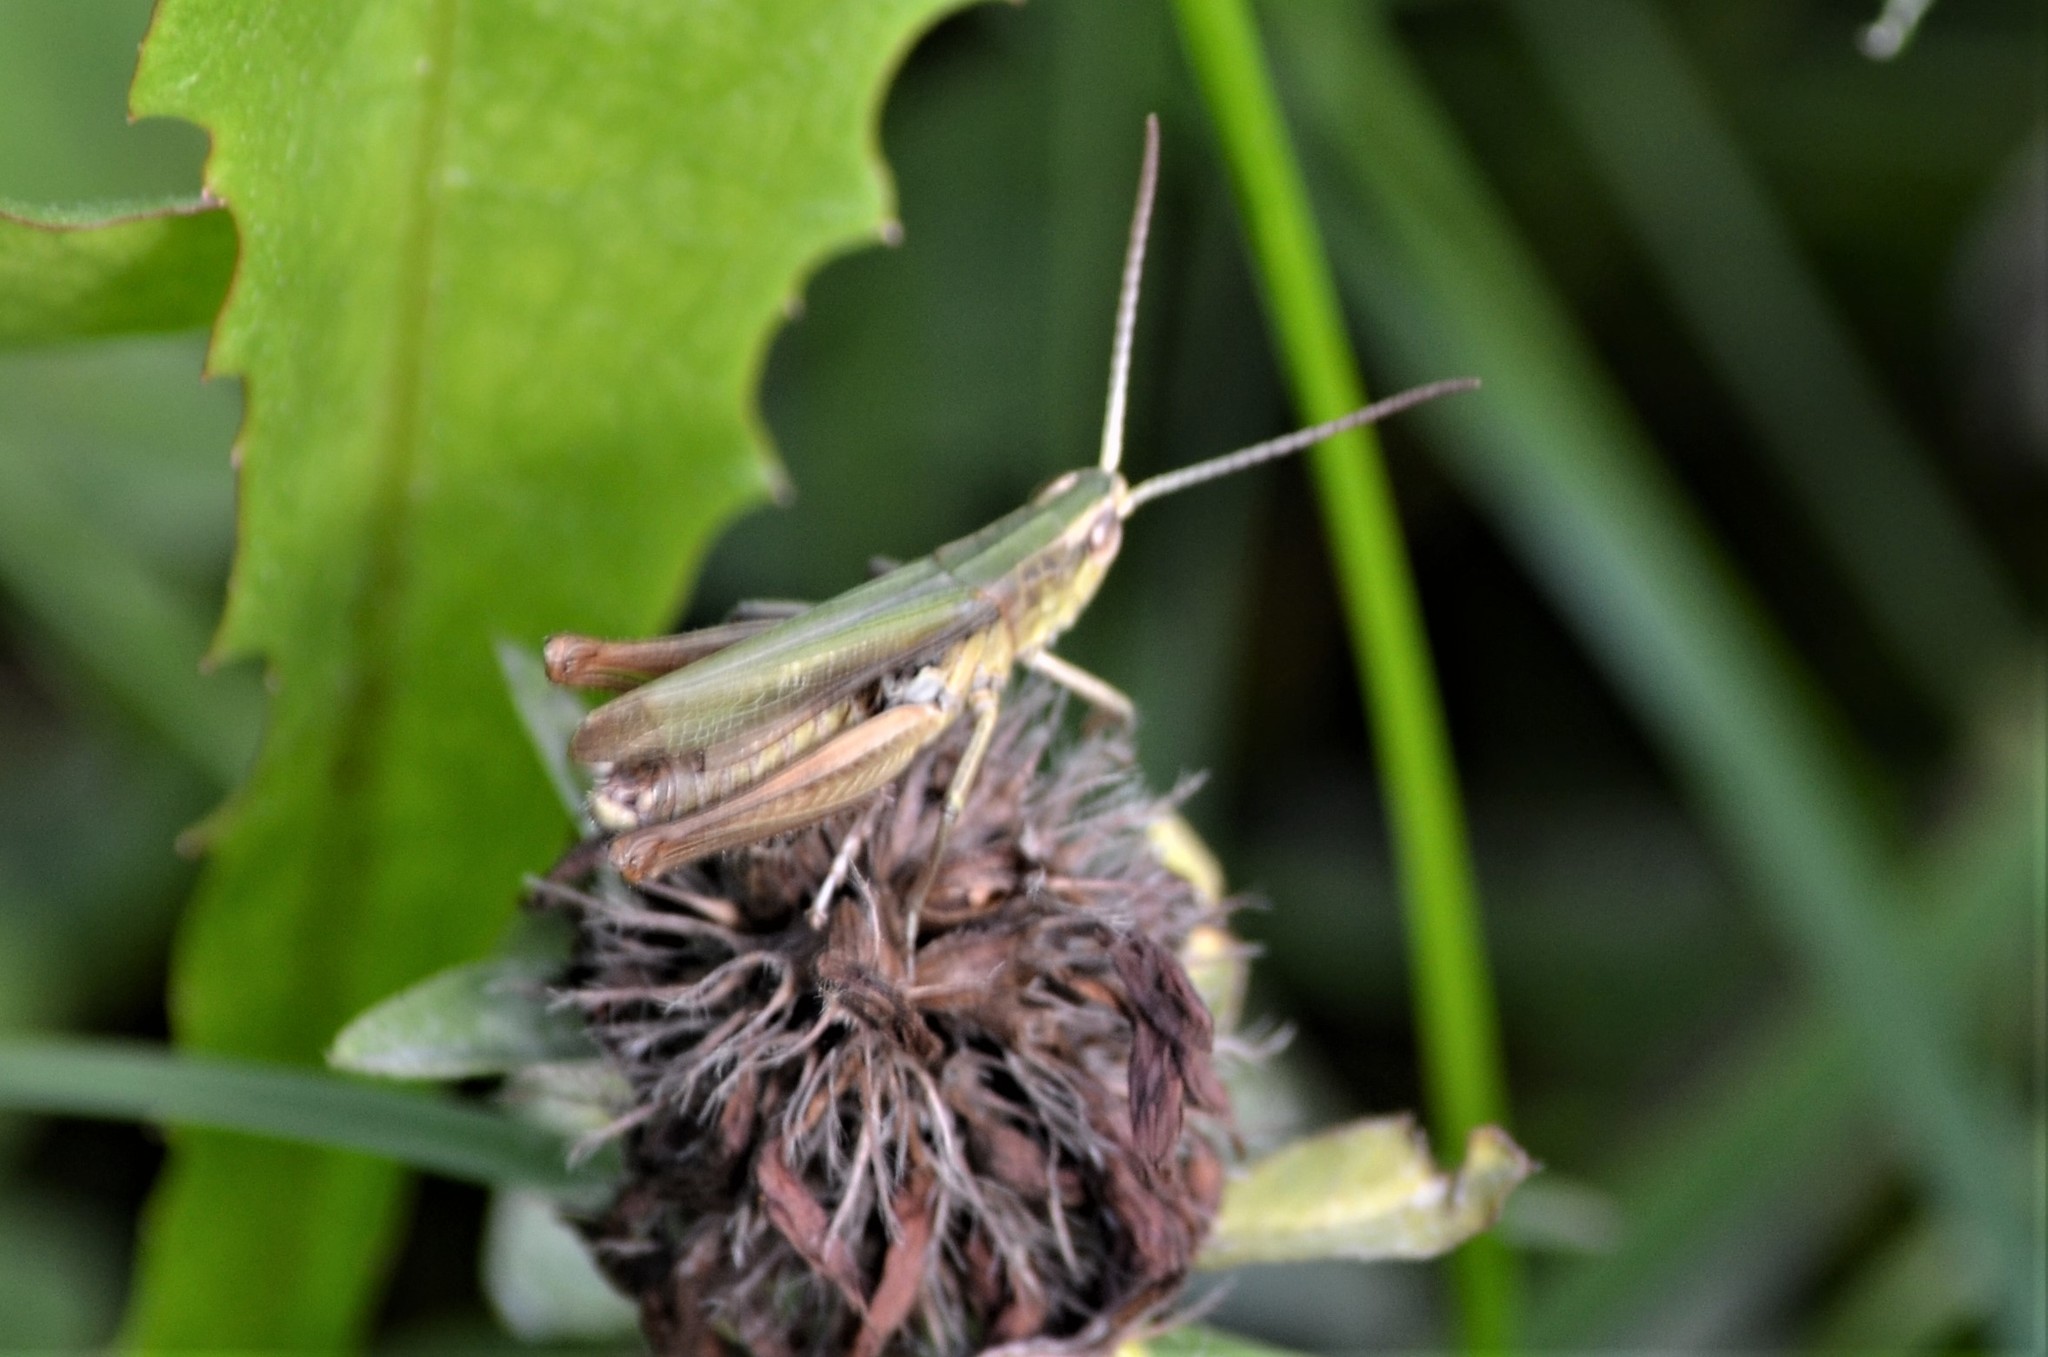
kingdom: Animalia
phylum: Arthropoda
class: Insecta
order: Orthoptera
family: Acrididae
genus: Chorthippus
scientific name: Chorthippus albomarginatus
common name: Lesser marsh grasshopper
